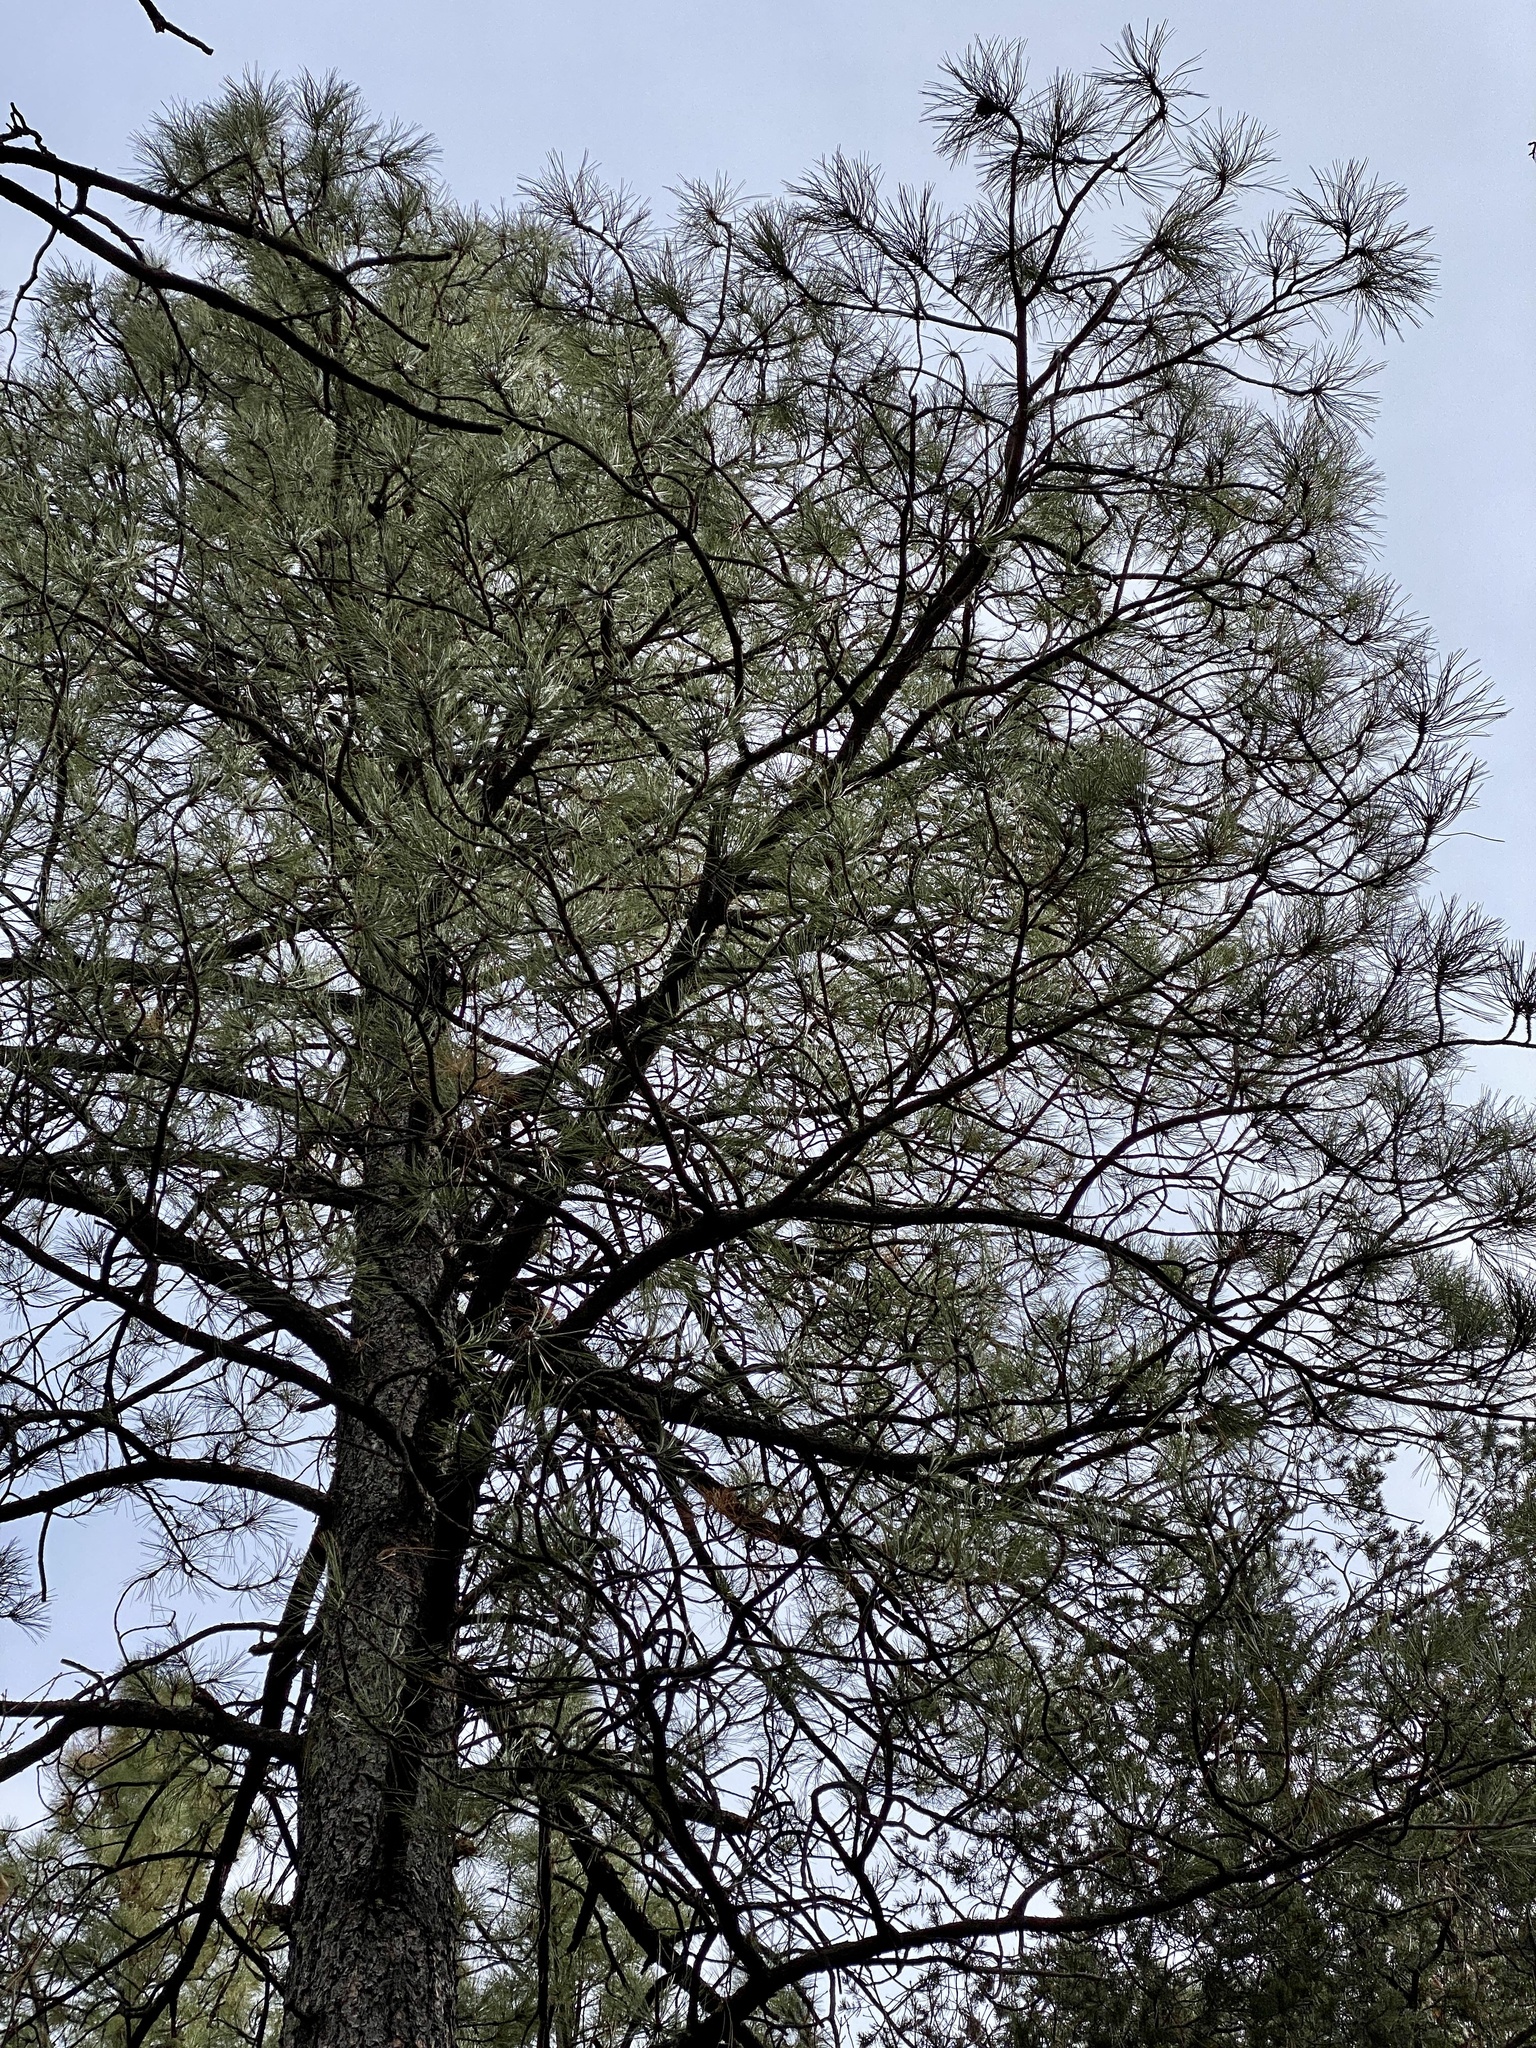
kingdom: Plantae
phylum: Tracheophyta
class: Pinopsida
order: Pinales
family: Pinaceae
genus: Pinus
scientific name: Pinus ponderosa
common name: Western yellow-pine
